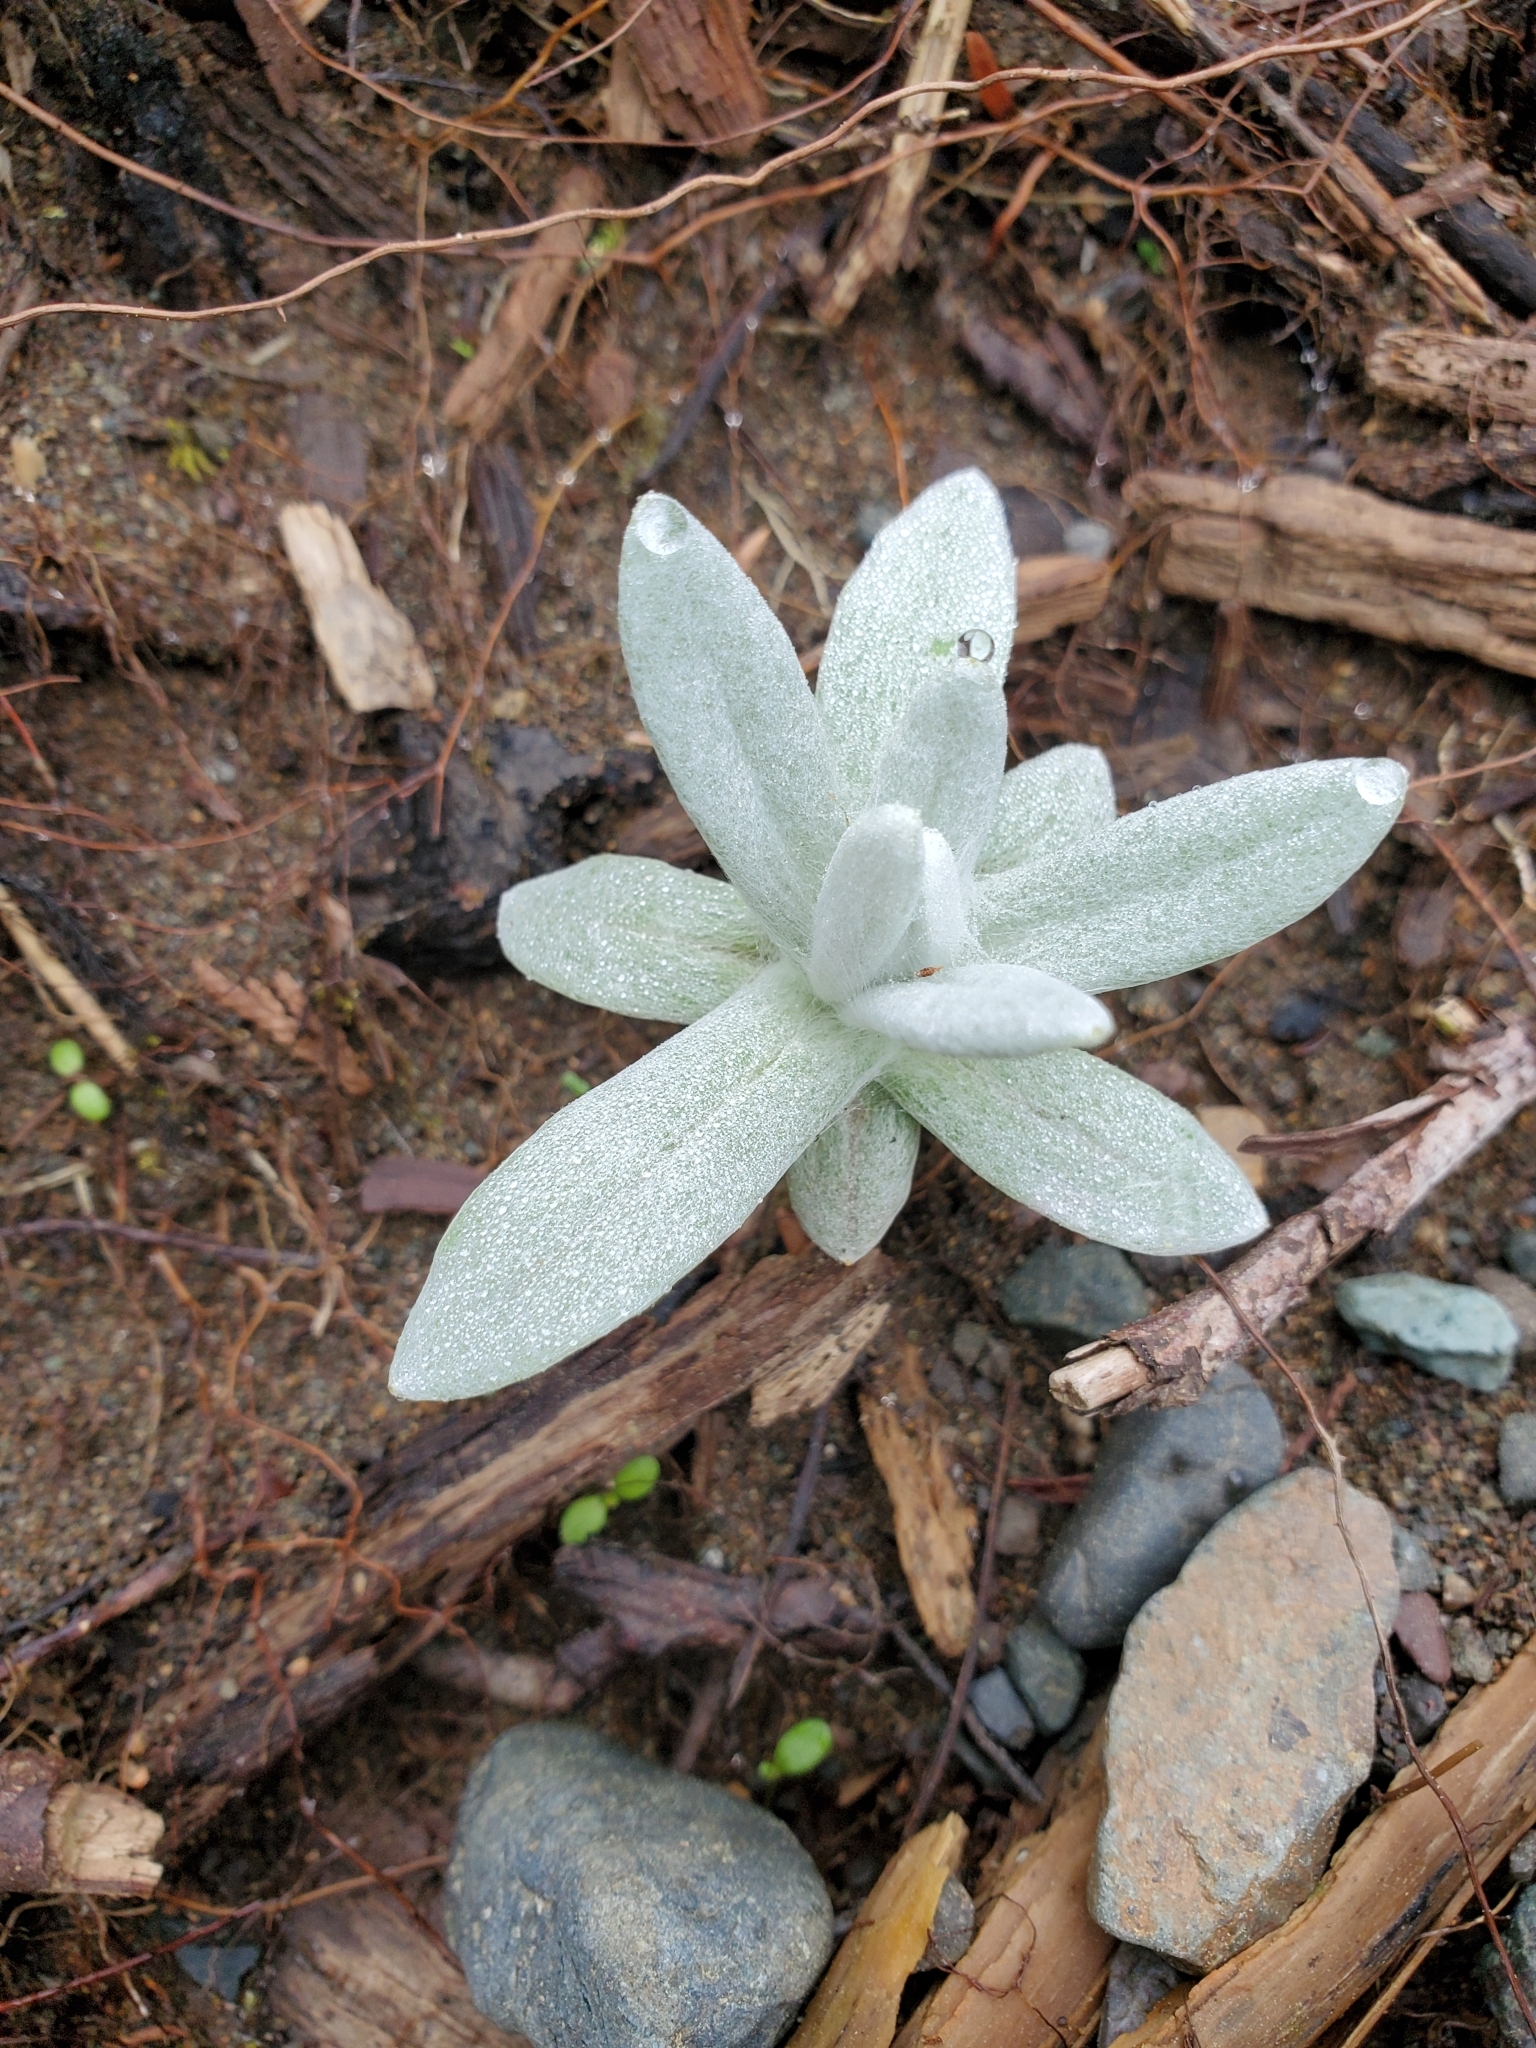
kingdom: Plantae
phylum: Tracheophyta
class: Magnoliopsida
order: Asterales
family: Asteraceae
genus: Anaphalis
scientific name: Anaphalis margaritacea
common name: Pearly everlasting
